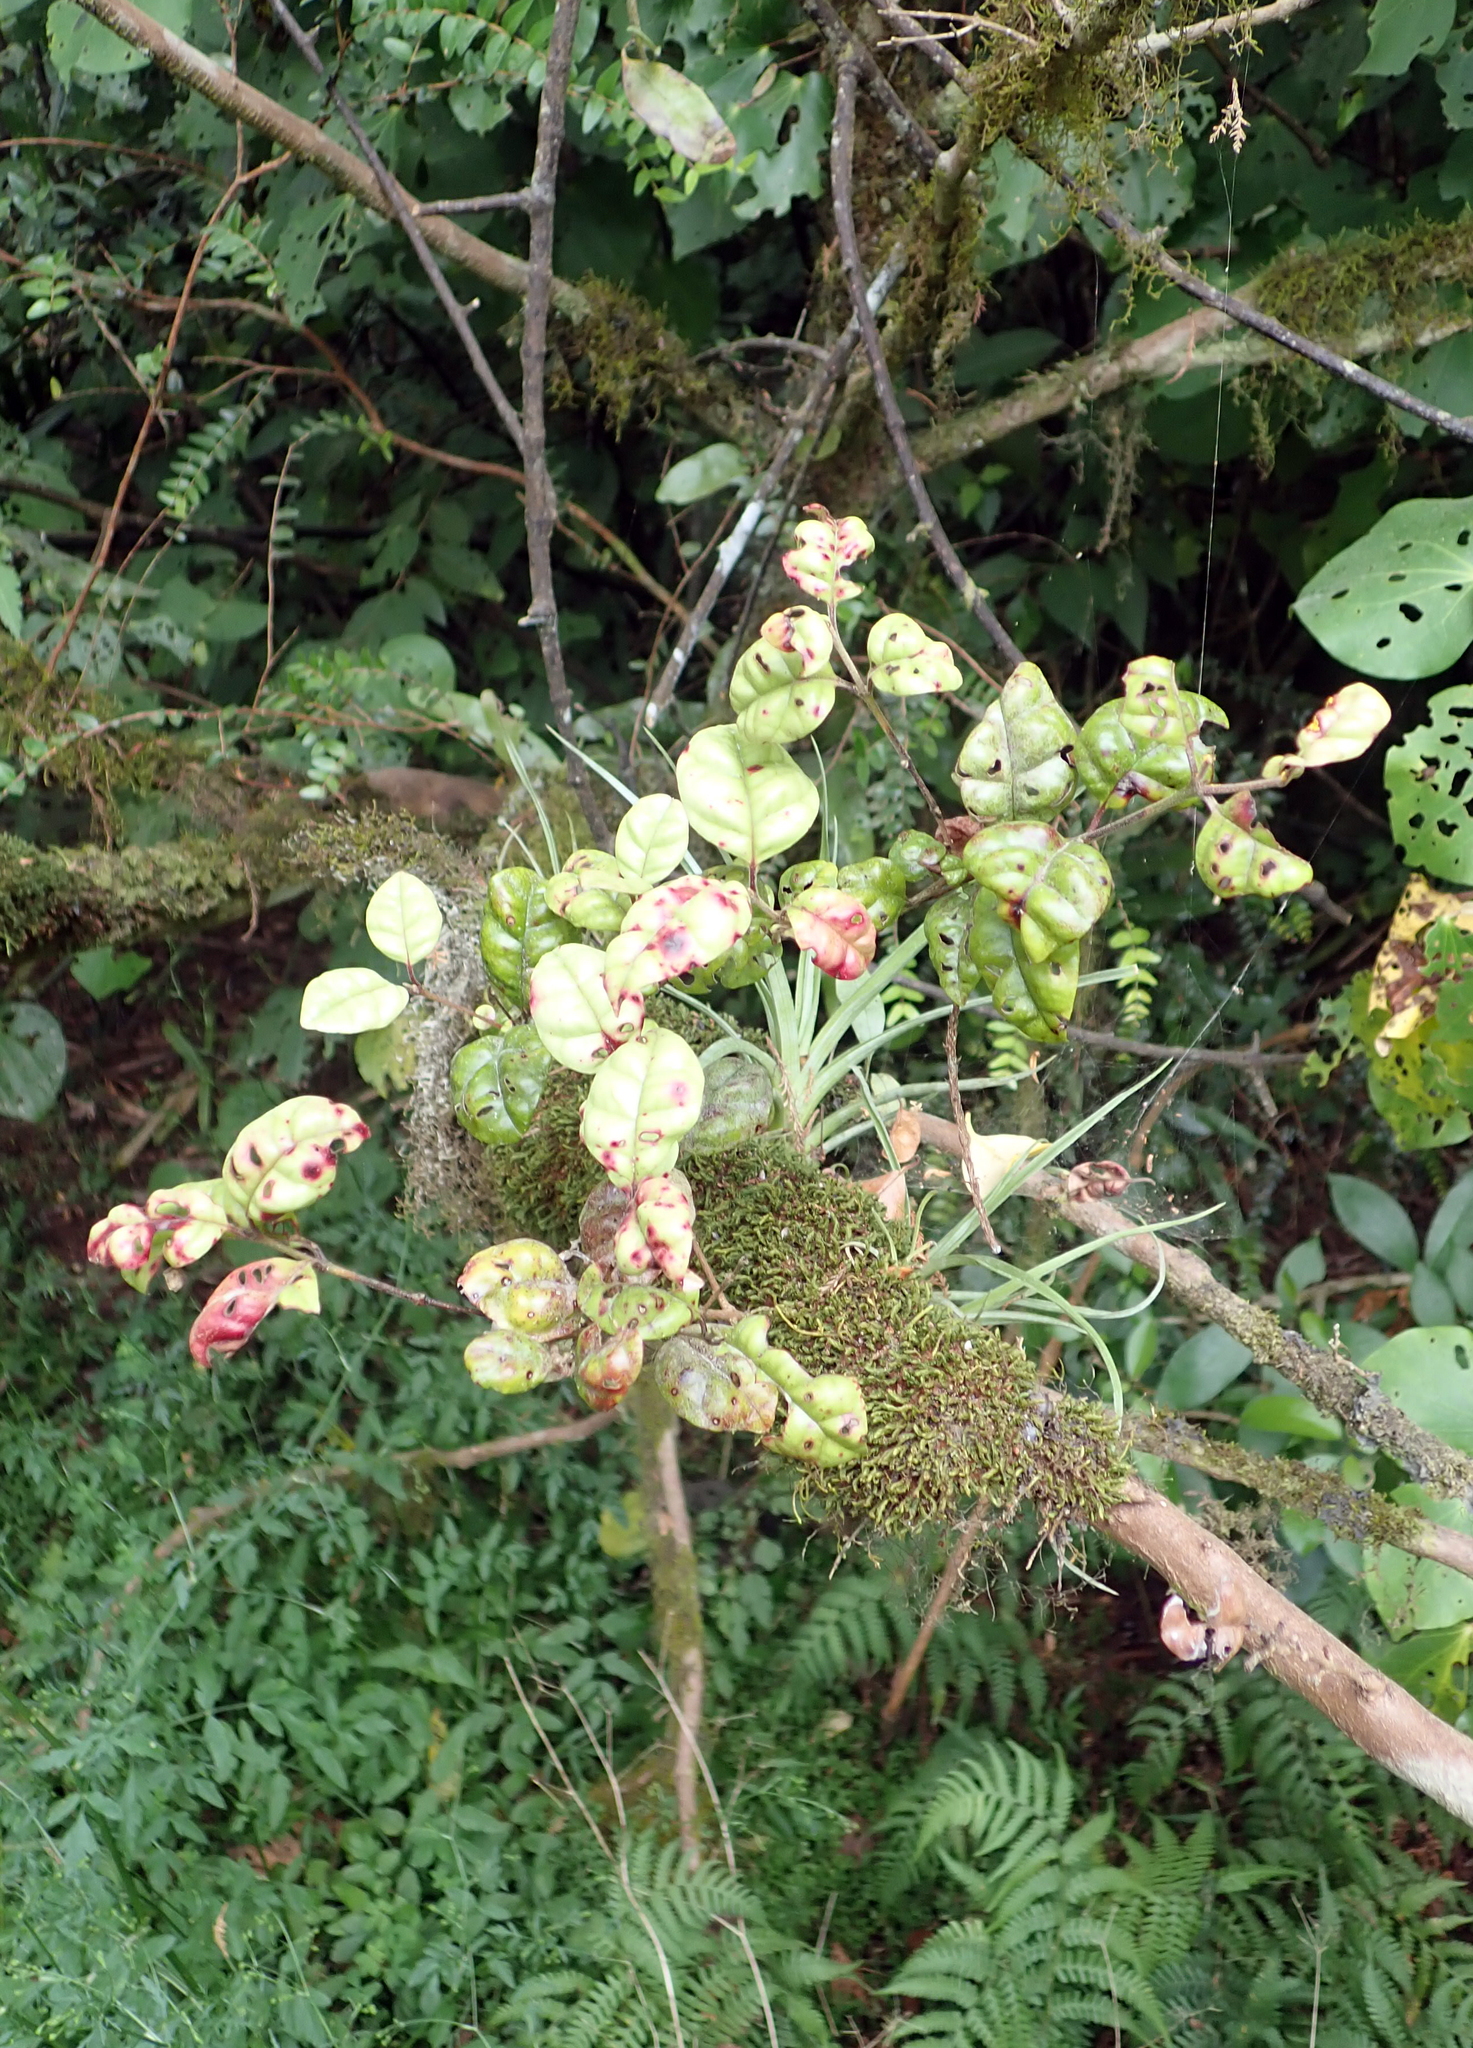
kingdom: Plantae
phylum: Tracheophyta
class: Magnoliopsida
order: Myrtales
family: Myrtaceae
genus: Lophomyrtus
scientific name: Lophomyrtus bullata
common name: Rama rama
